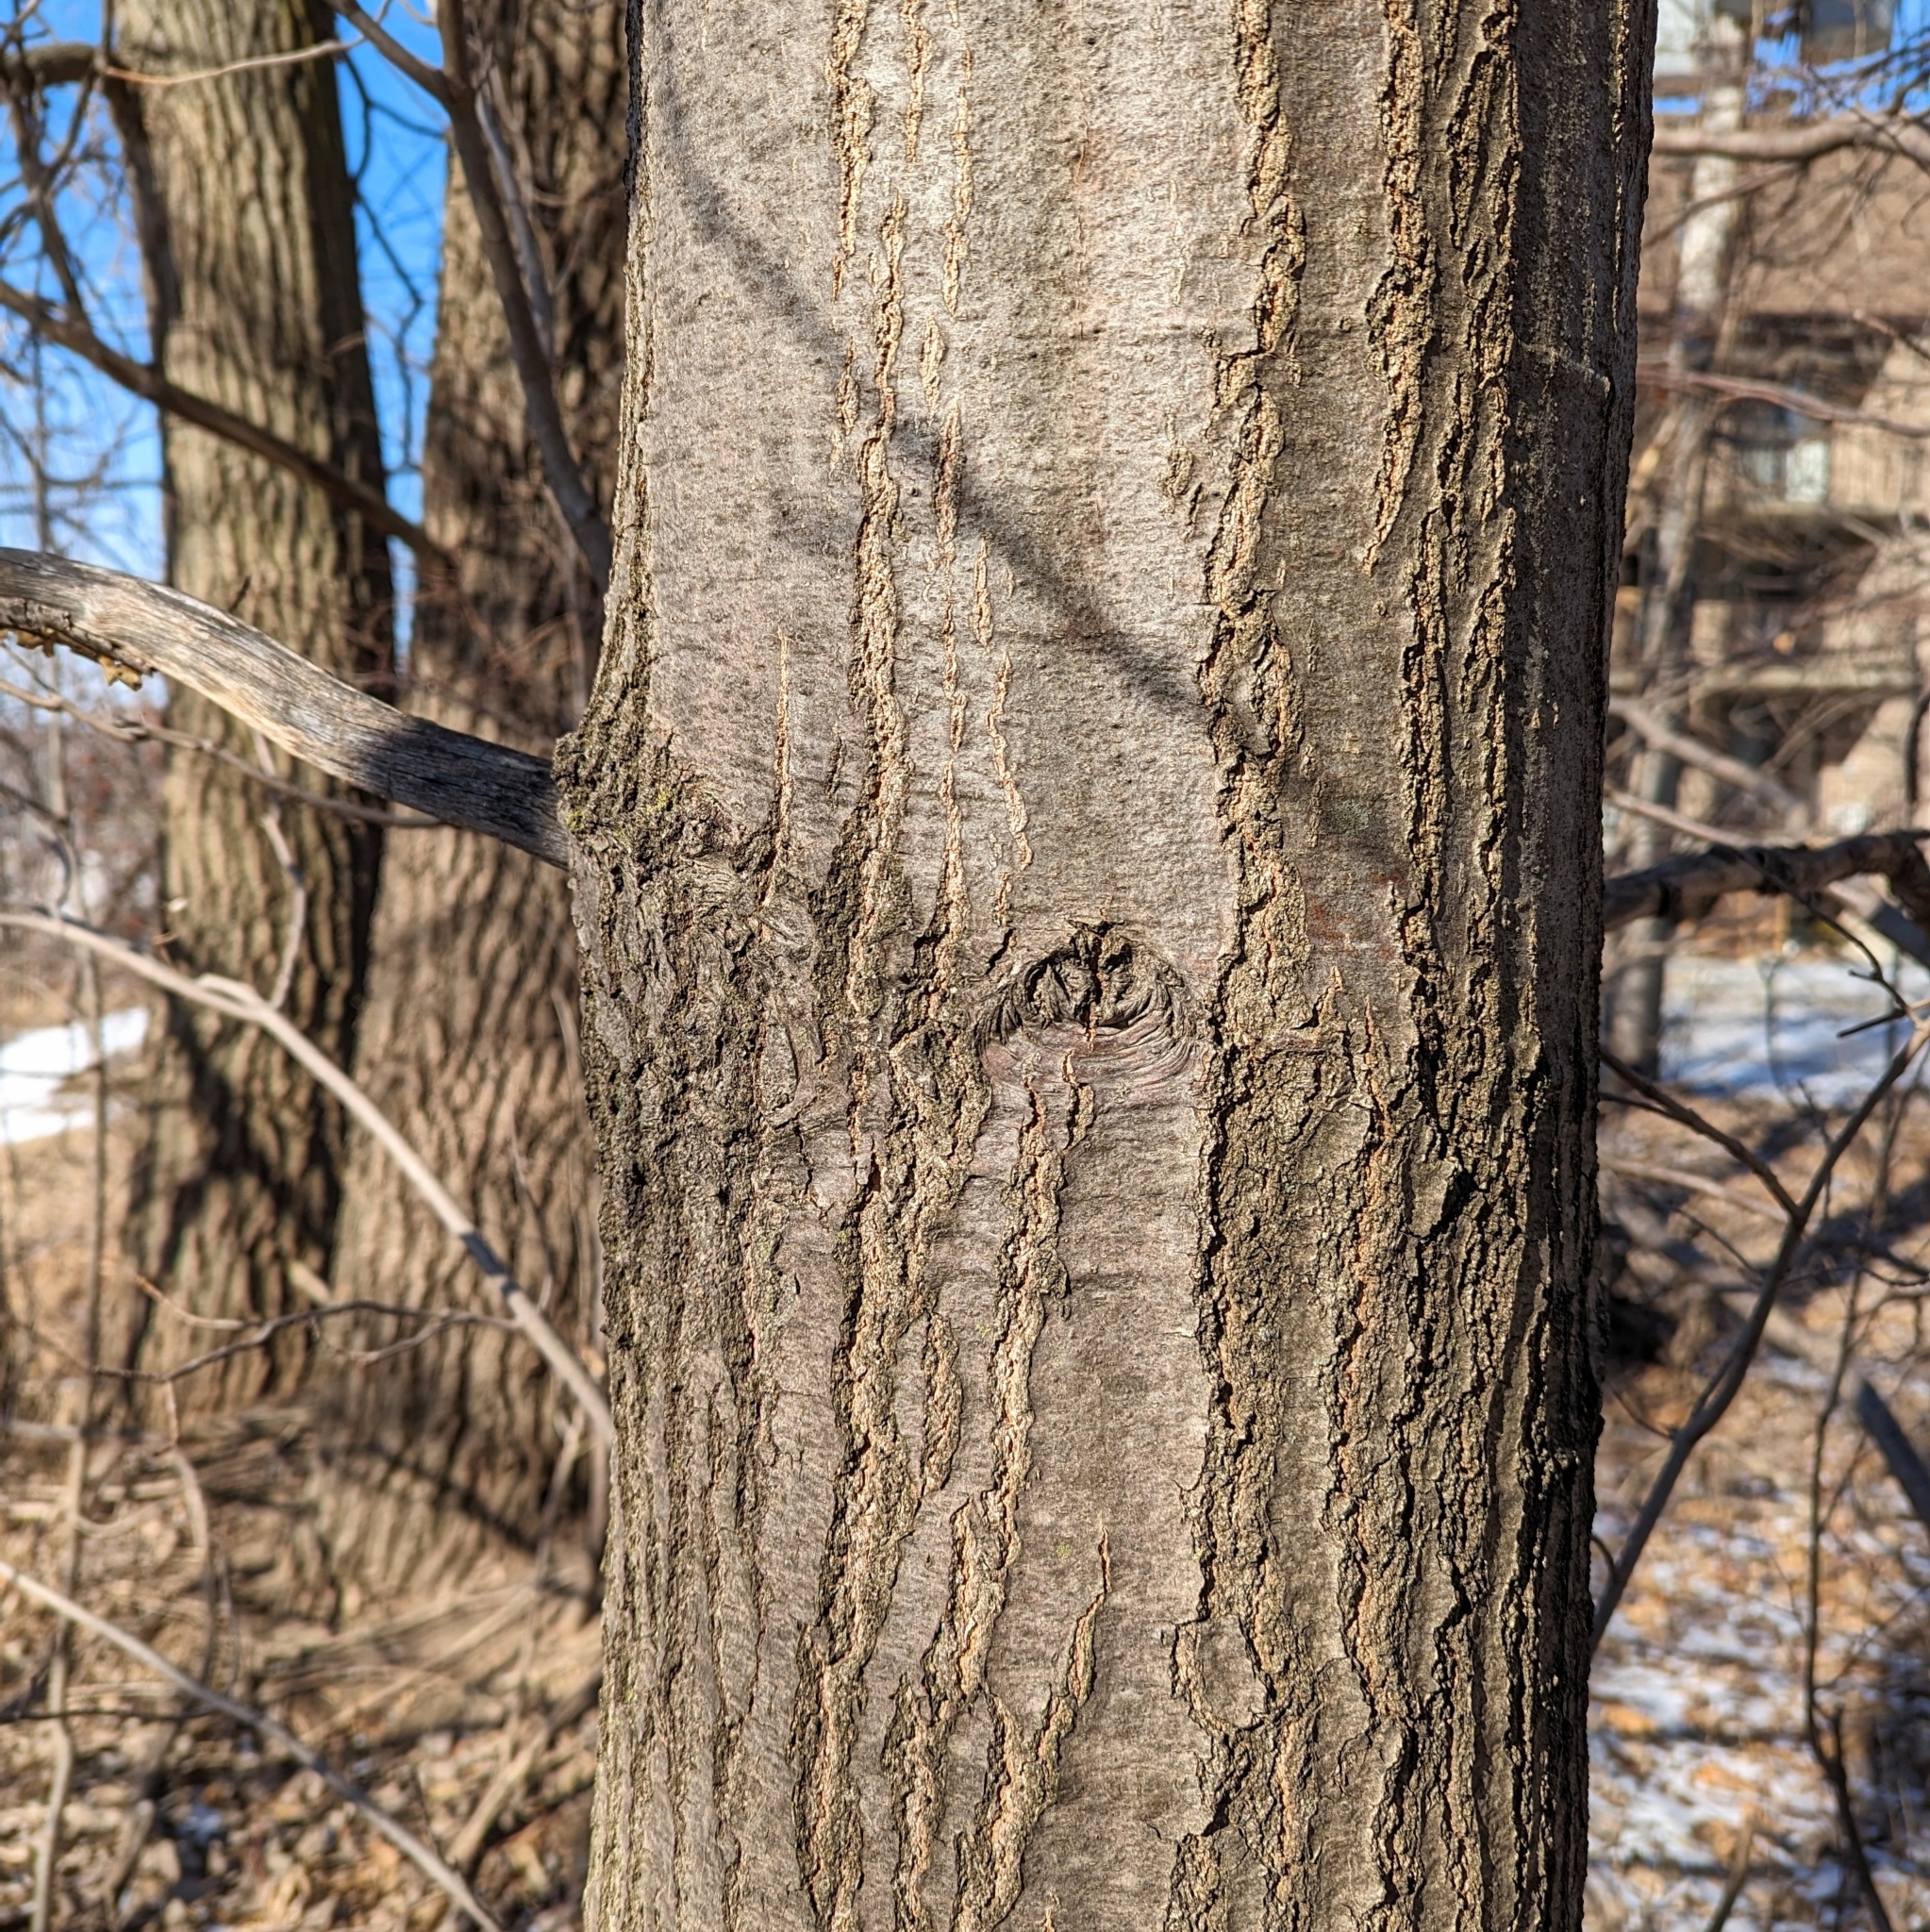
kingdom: Plantae
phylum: Tracheophyta
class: Magnoliopsida
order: Fagales
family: Fagaceae
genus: Quercus
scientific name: Quercus rubra
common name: Red oak
